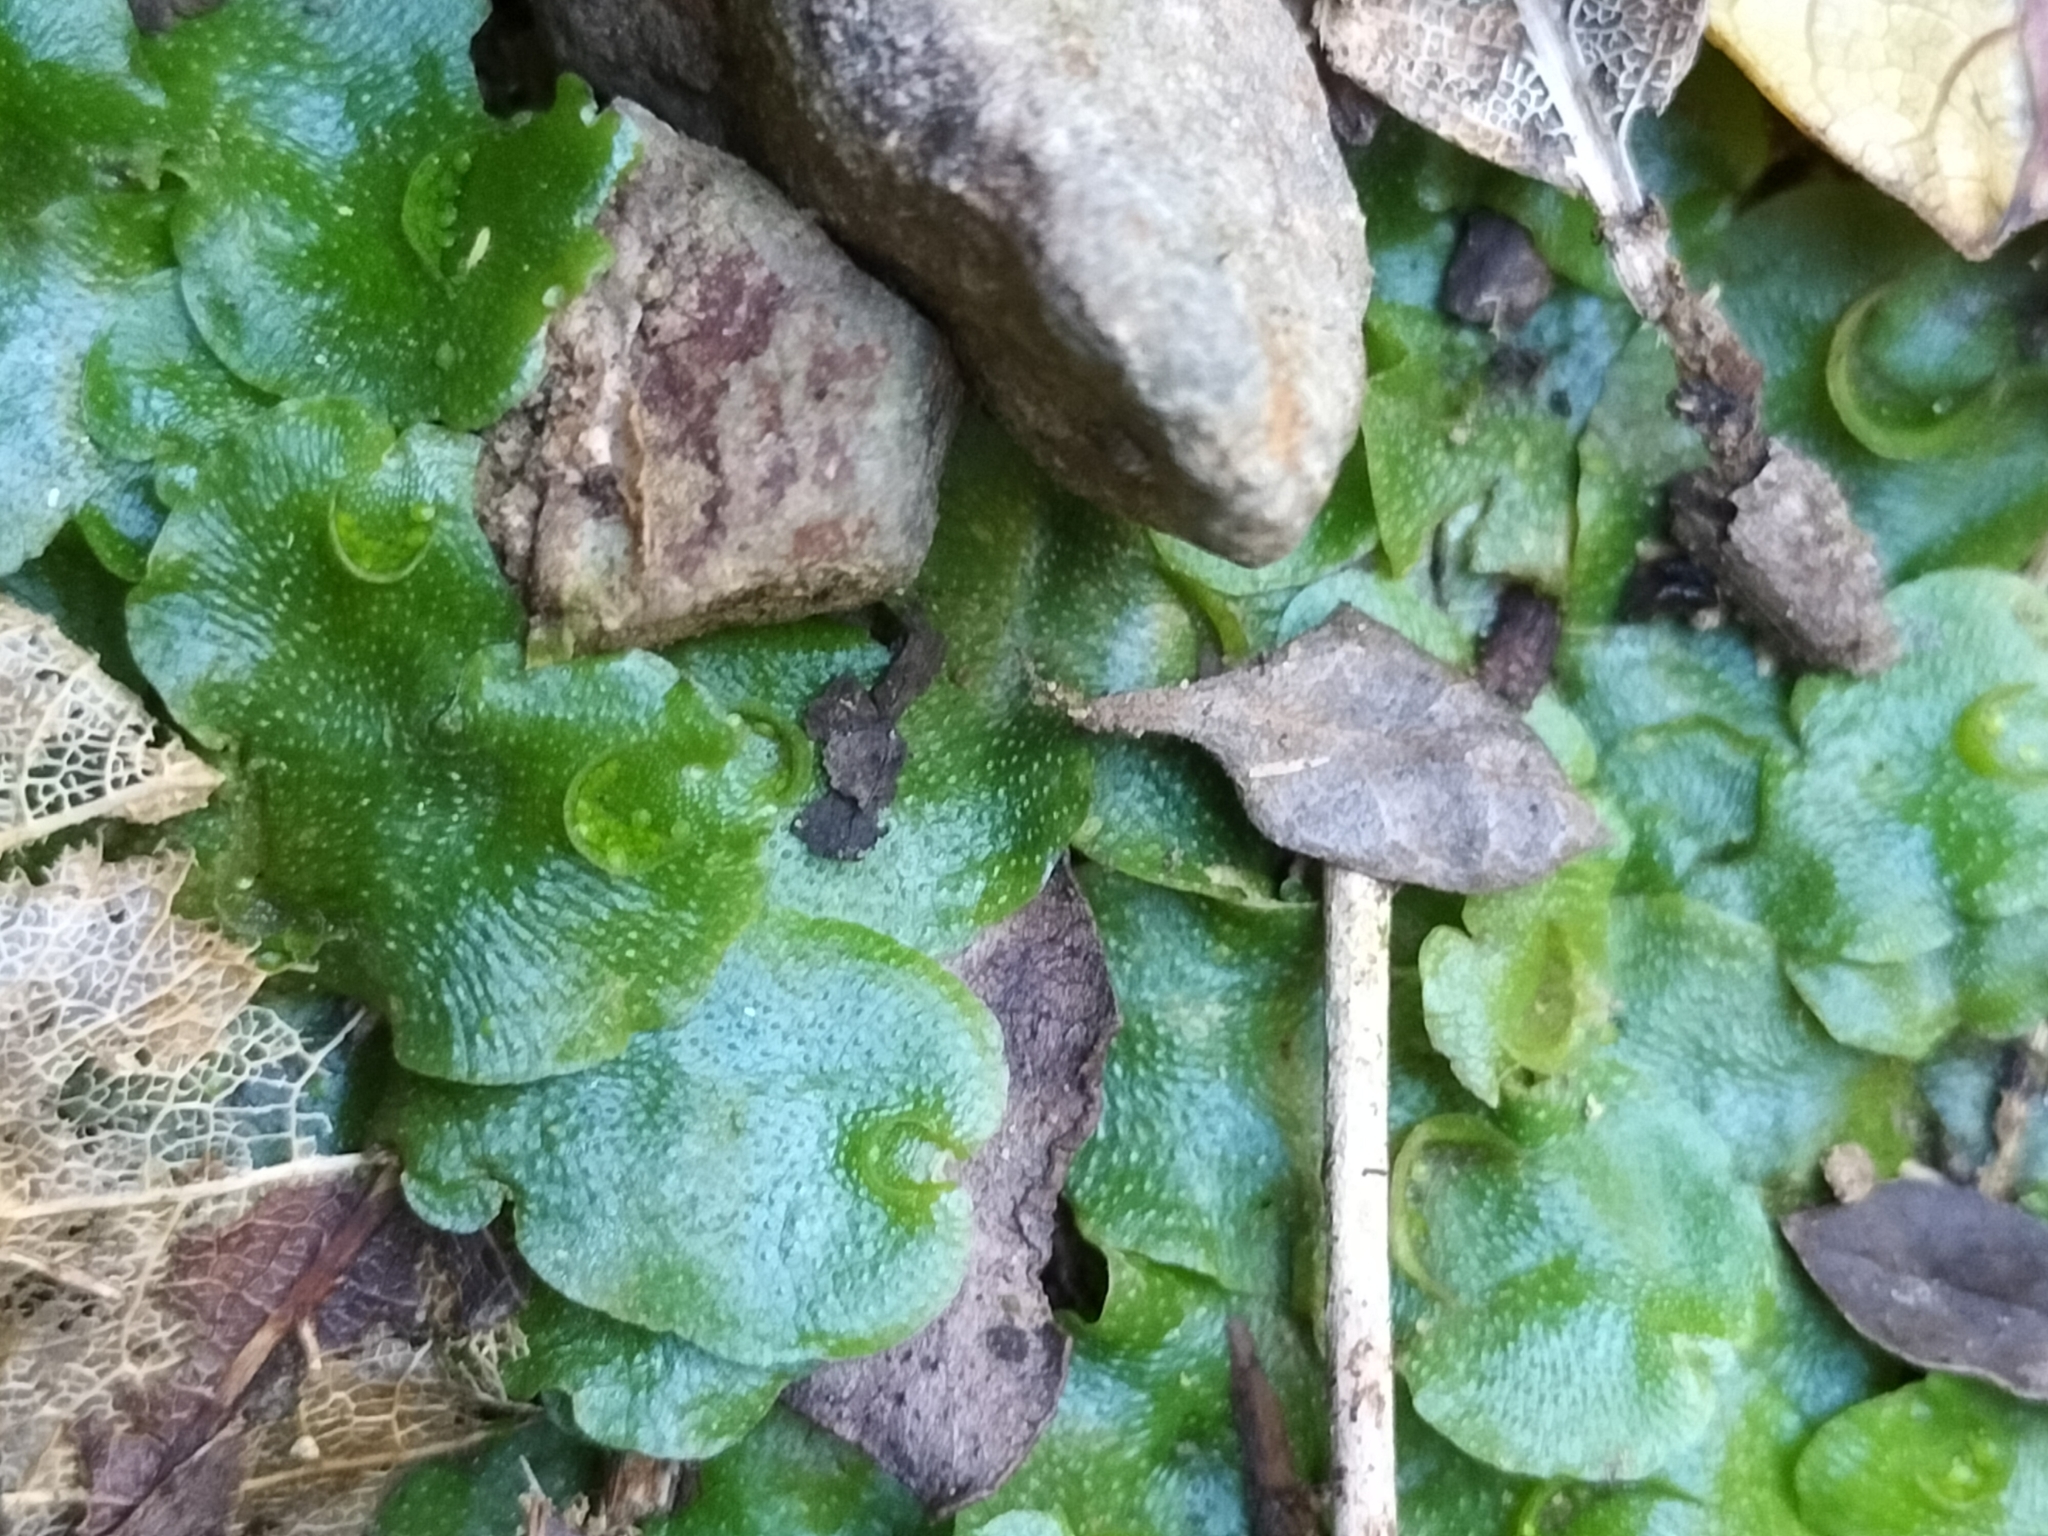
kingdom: Plantae
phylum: Marchantiophyta
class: Marchantiopsida
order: Lunulariales
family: Lunulariaceae
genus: Lunularia
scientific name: Lunularia cruciata
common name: Crescent-cup liverwort
